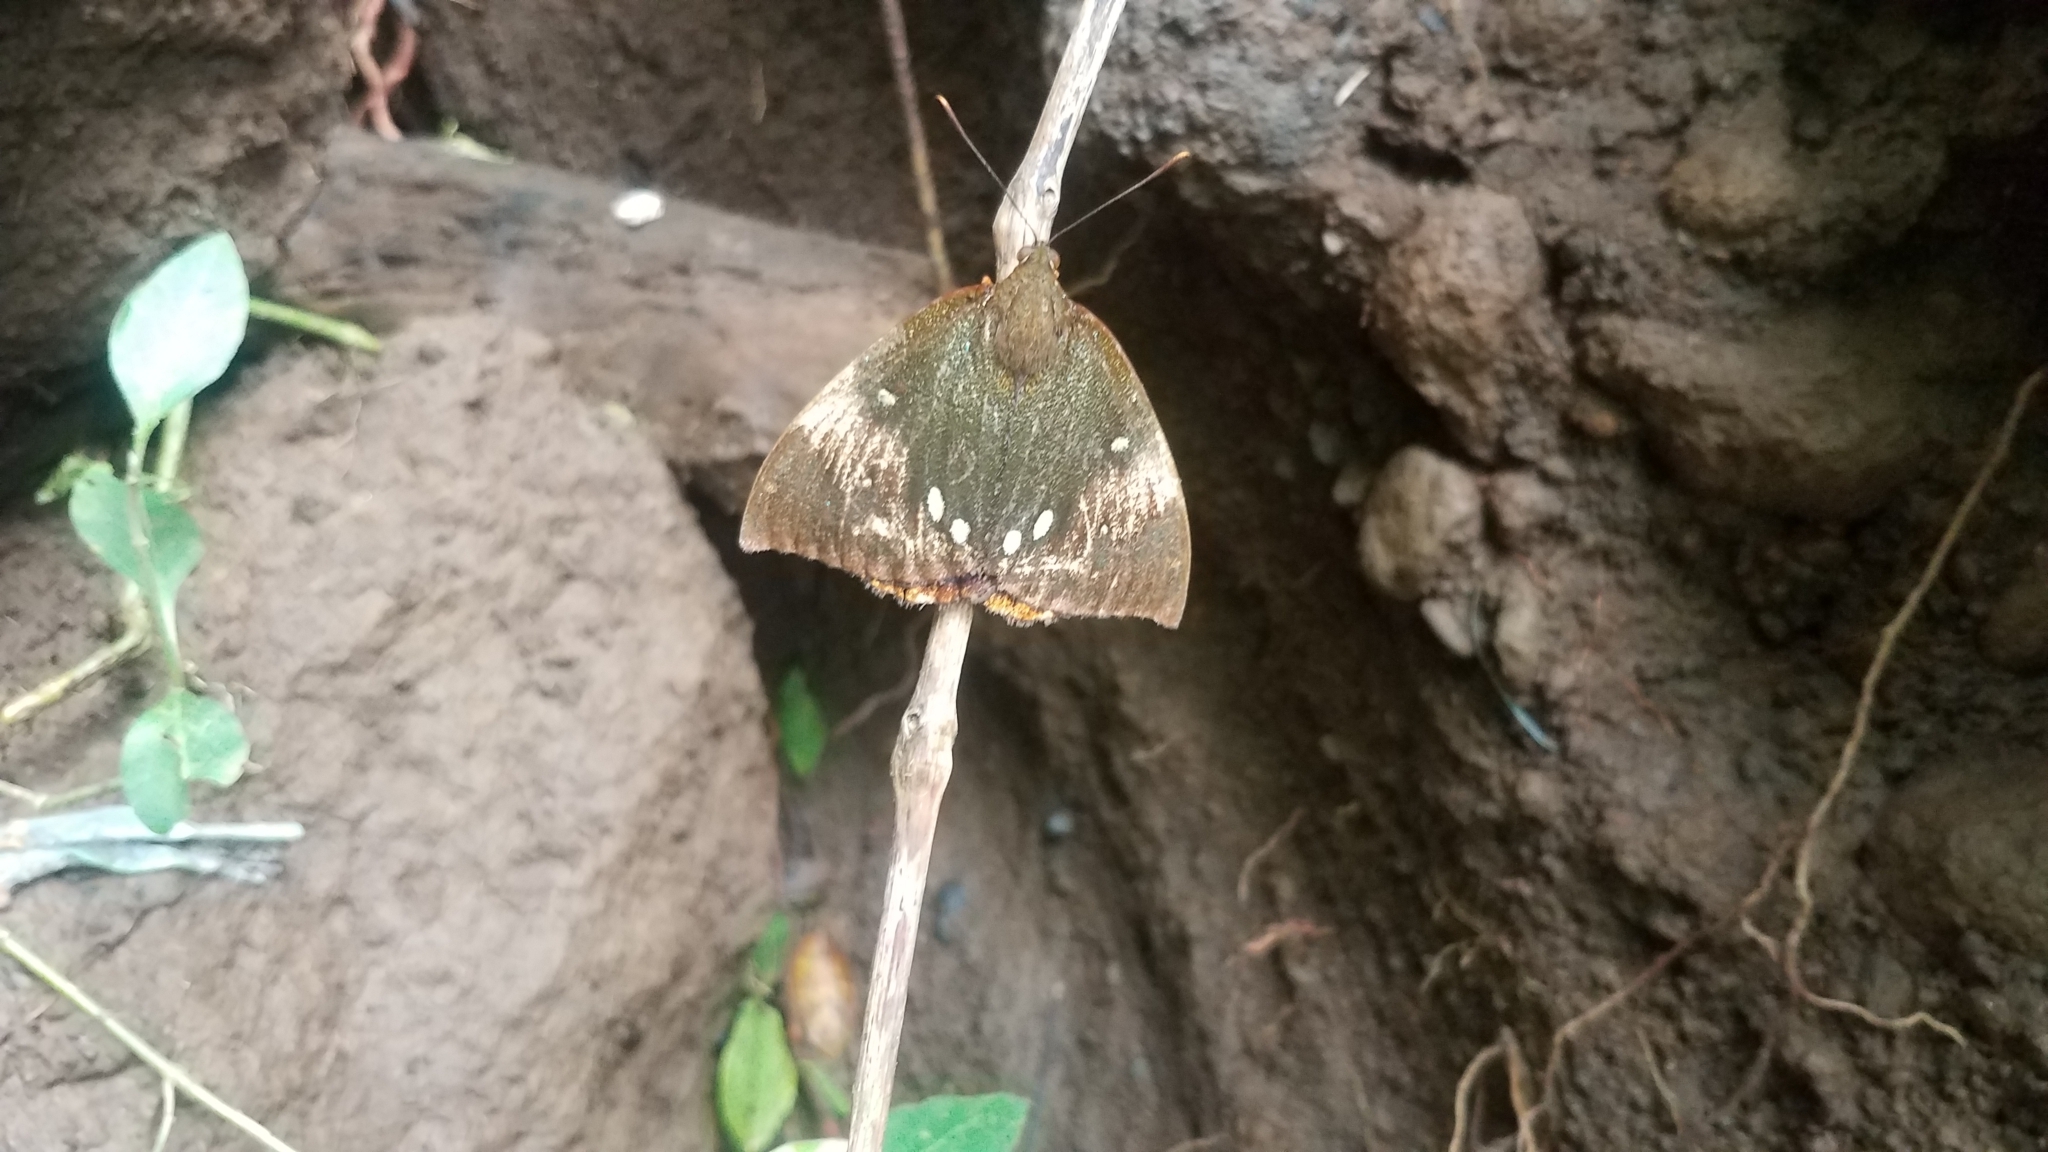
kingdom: Animalia
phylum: Arthropoda
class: Insecta
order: Lepidoptera
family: Castniidae
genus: Divana
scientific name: Divana diva
